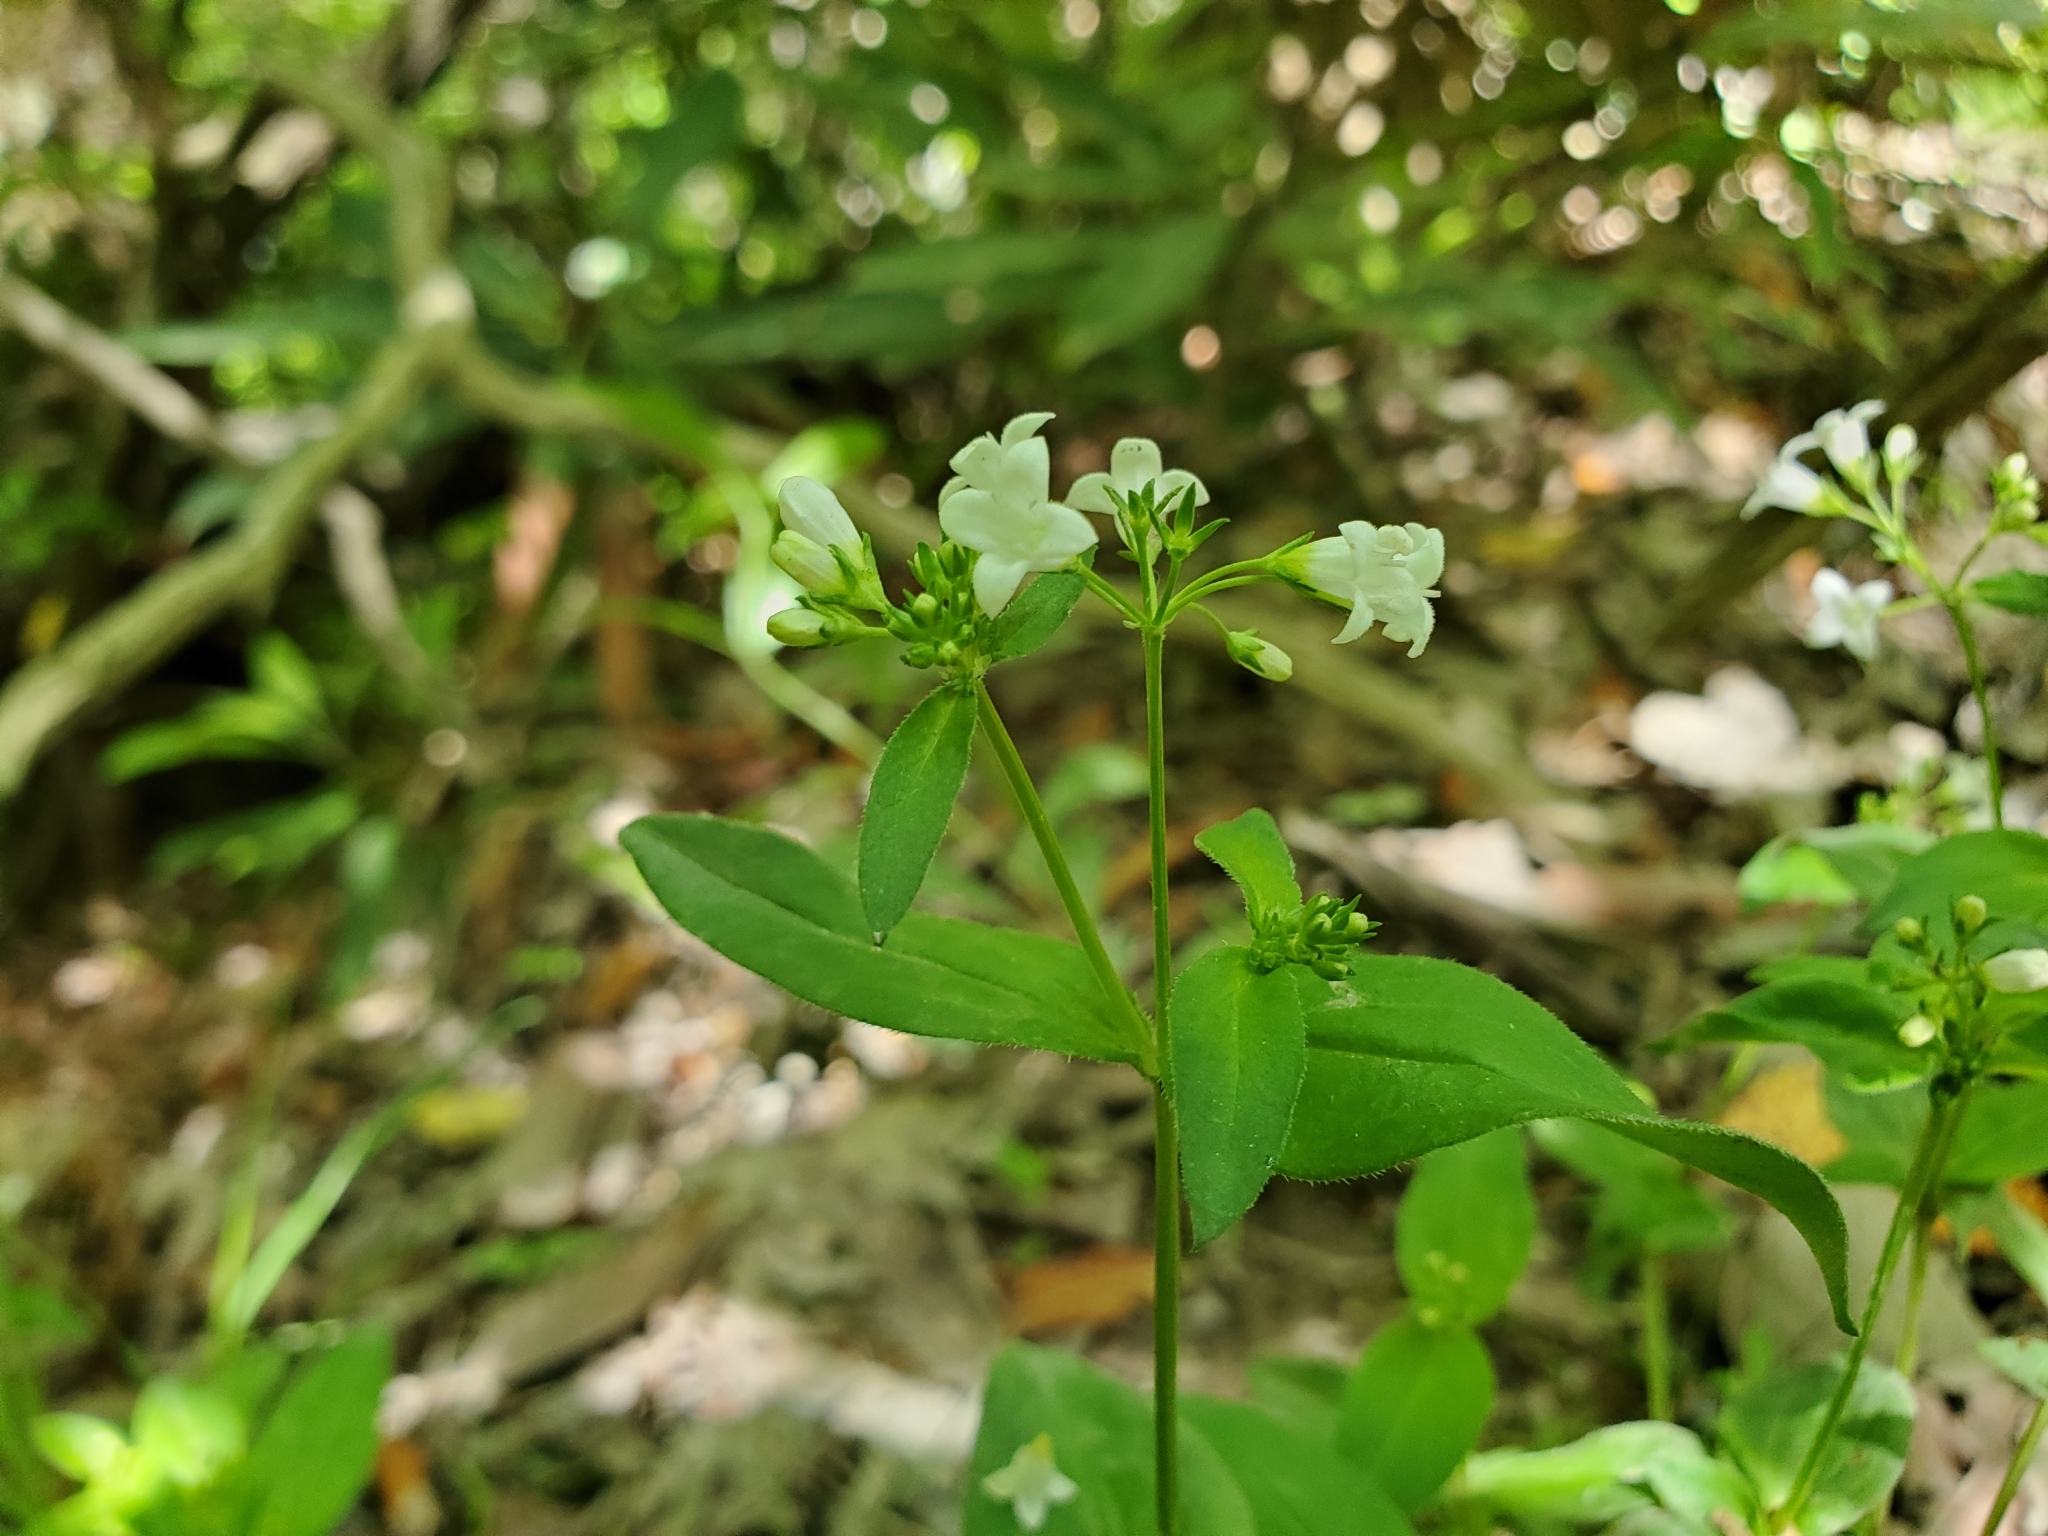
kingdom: Plantae
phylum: Tracheophyta
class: Magnoliopsida
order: Gentianales
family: Rubiaceae
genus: Houstonia
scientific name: Houstonia purpurea
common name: Summer bluet
